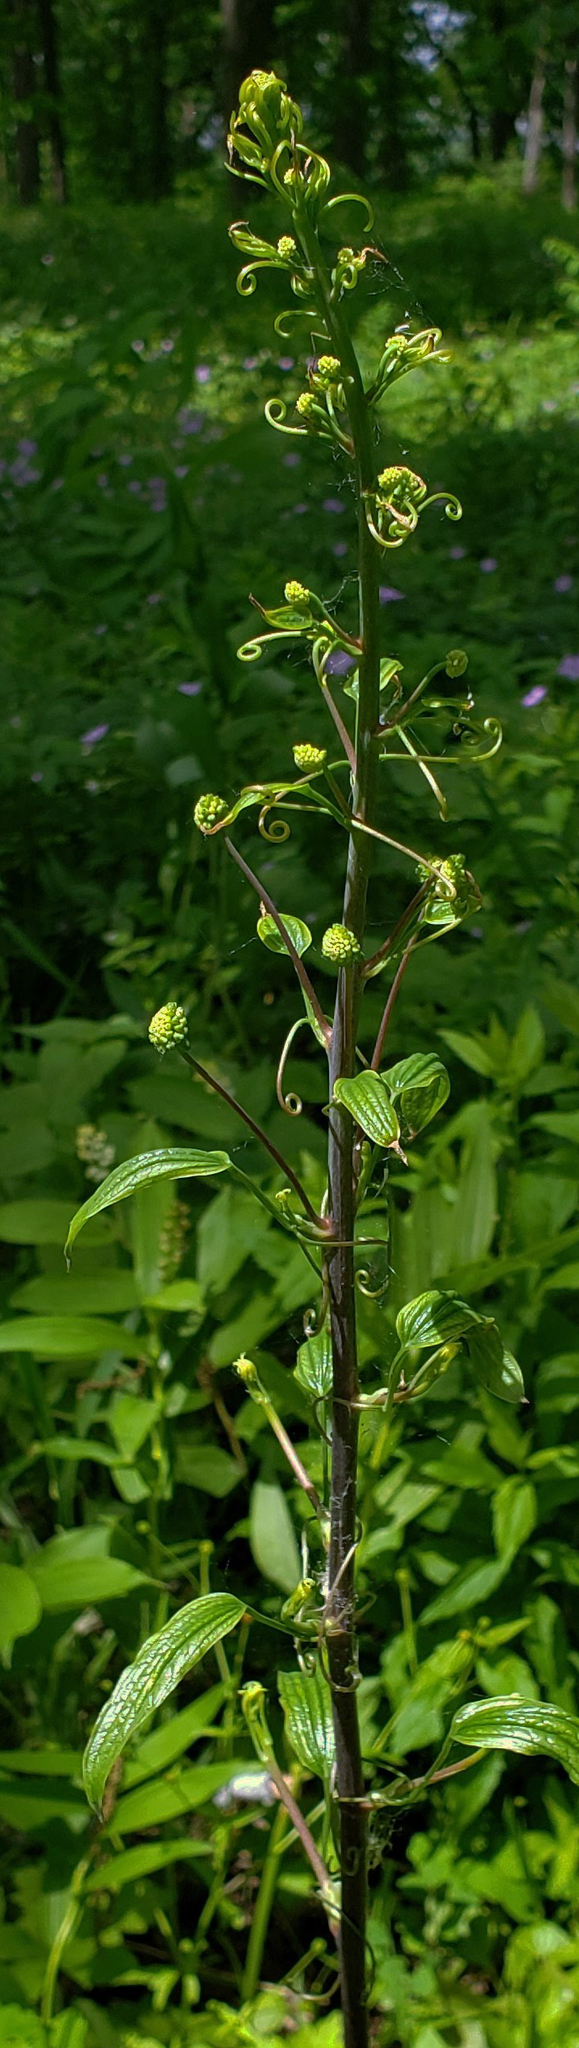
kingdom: Plantae
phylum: Tracheophyta
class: Liliopsida
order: Liliales
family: Smilacaceae
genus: Smilax
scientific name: Smilax lasioneura
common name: Blue ridge carrionflower
